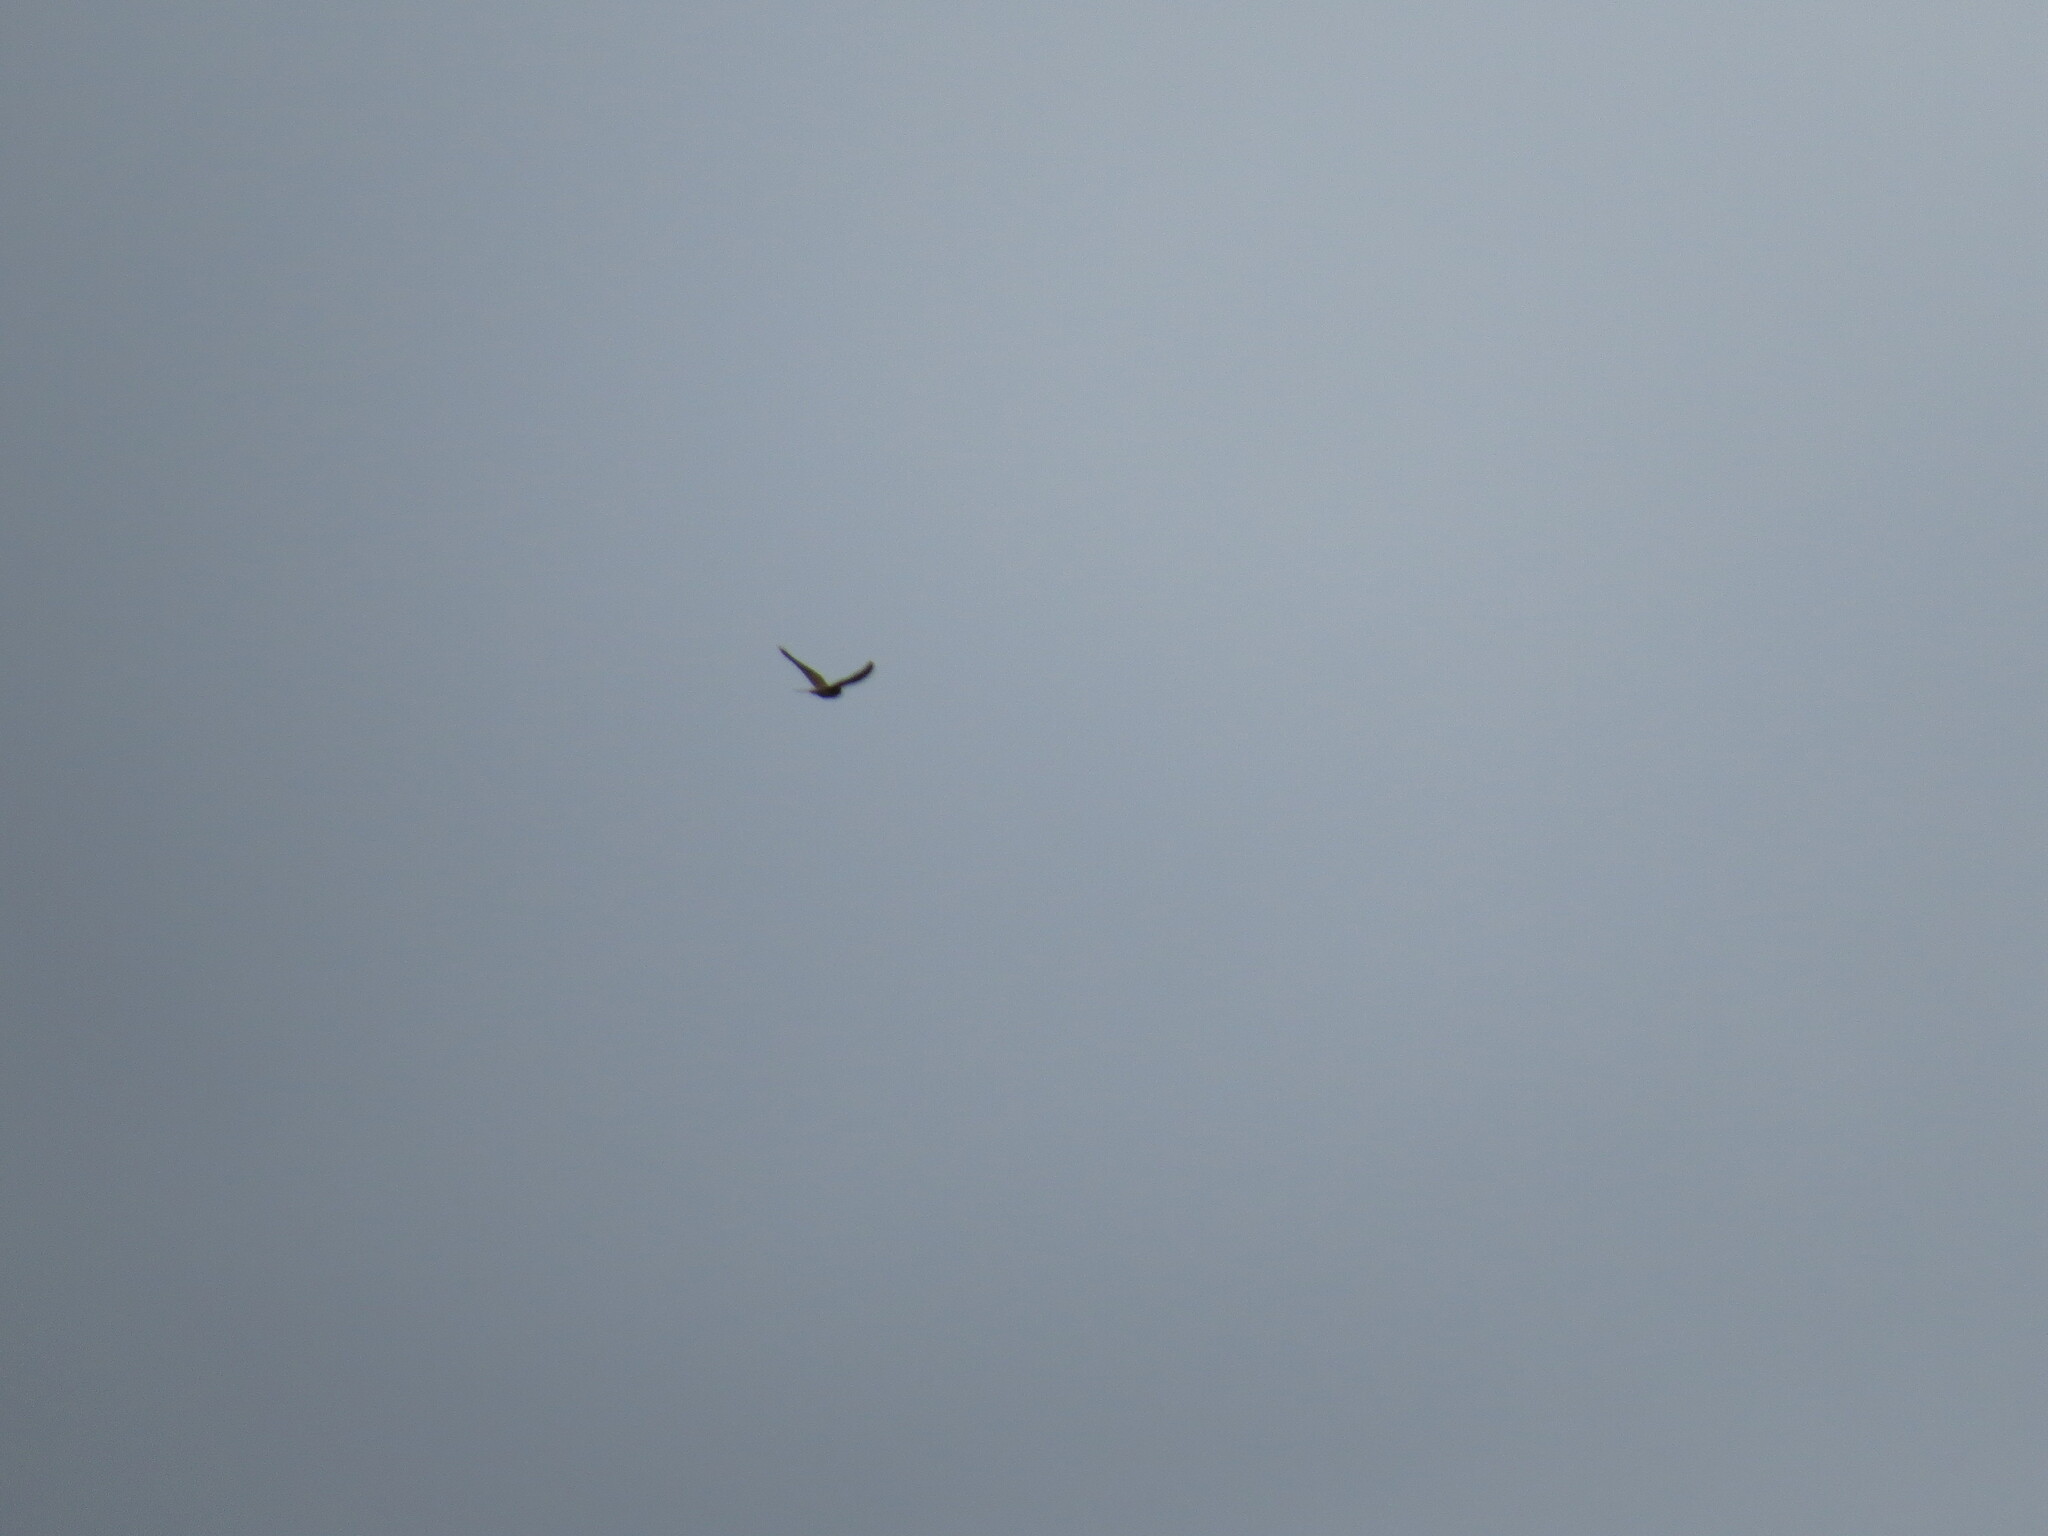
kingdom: Animalia
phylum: Chordata
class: Aves
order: Falconiformes
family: Falconidae
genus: Falco
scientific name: Falco tinnunculus
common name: Common kestrel
